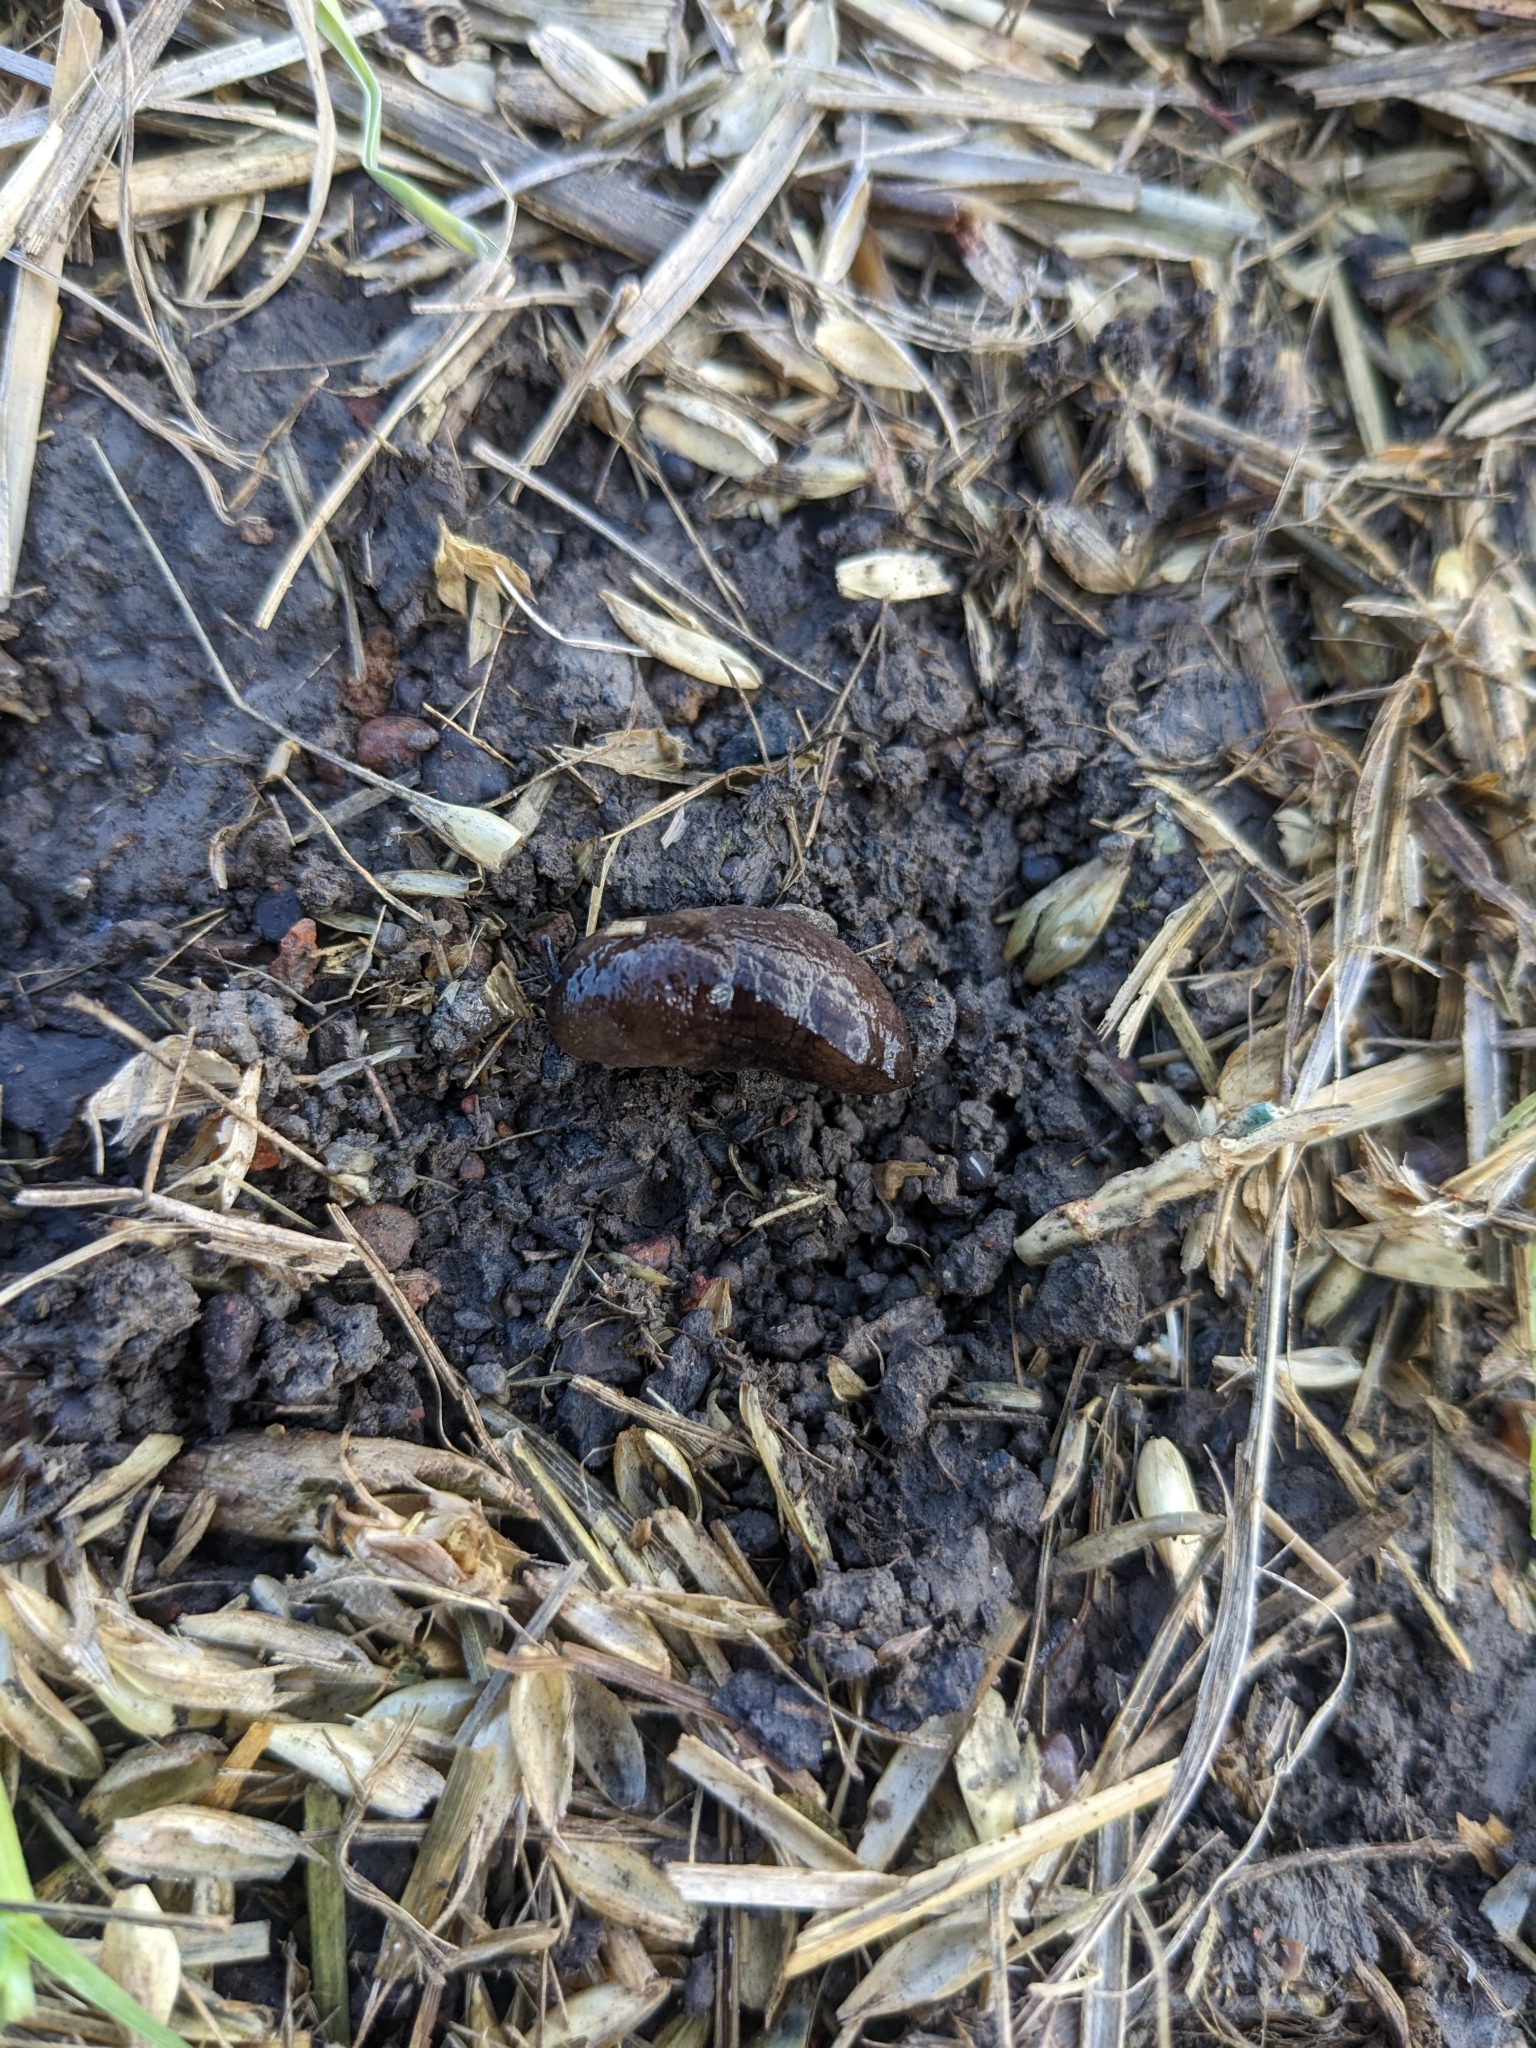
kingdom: Animalia
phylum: Mollusca
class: Gastropoda
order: Stylommatophora
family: Milacidae
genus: Milax
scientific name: Milax gagates
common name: Greenhouse slug
